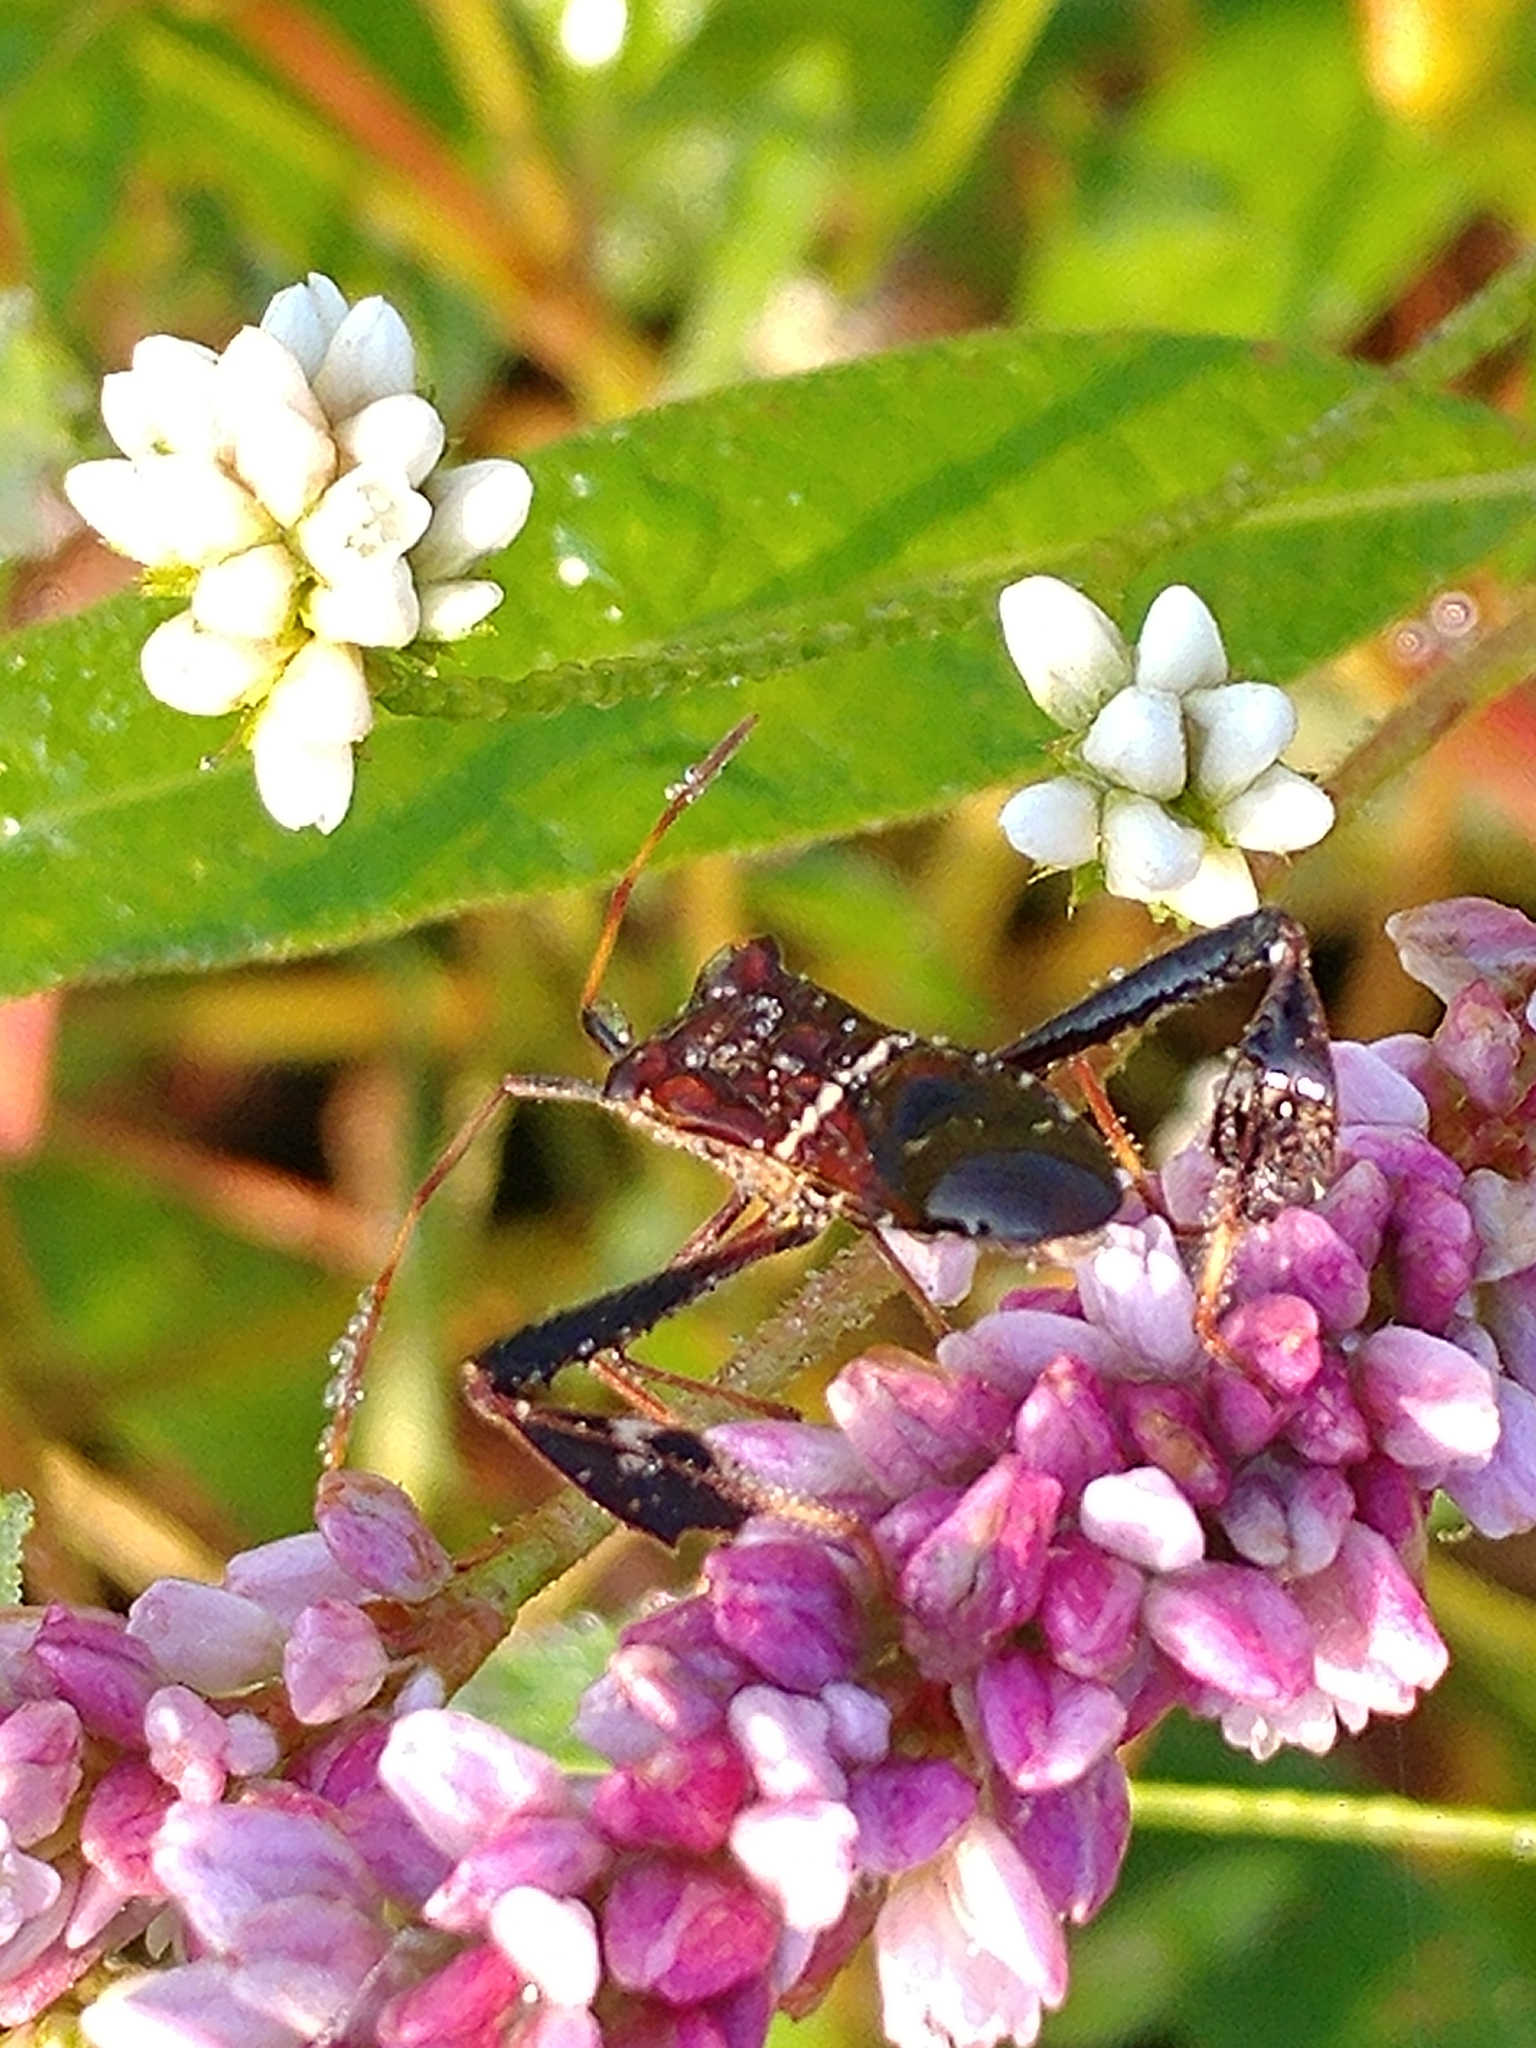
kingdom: Animalia
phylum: Arthropoda
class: Insecta
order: Hemiptera
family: Coreidae
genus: Leptoglossus
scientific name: Leptoglossus phyllopus
